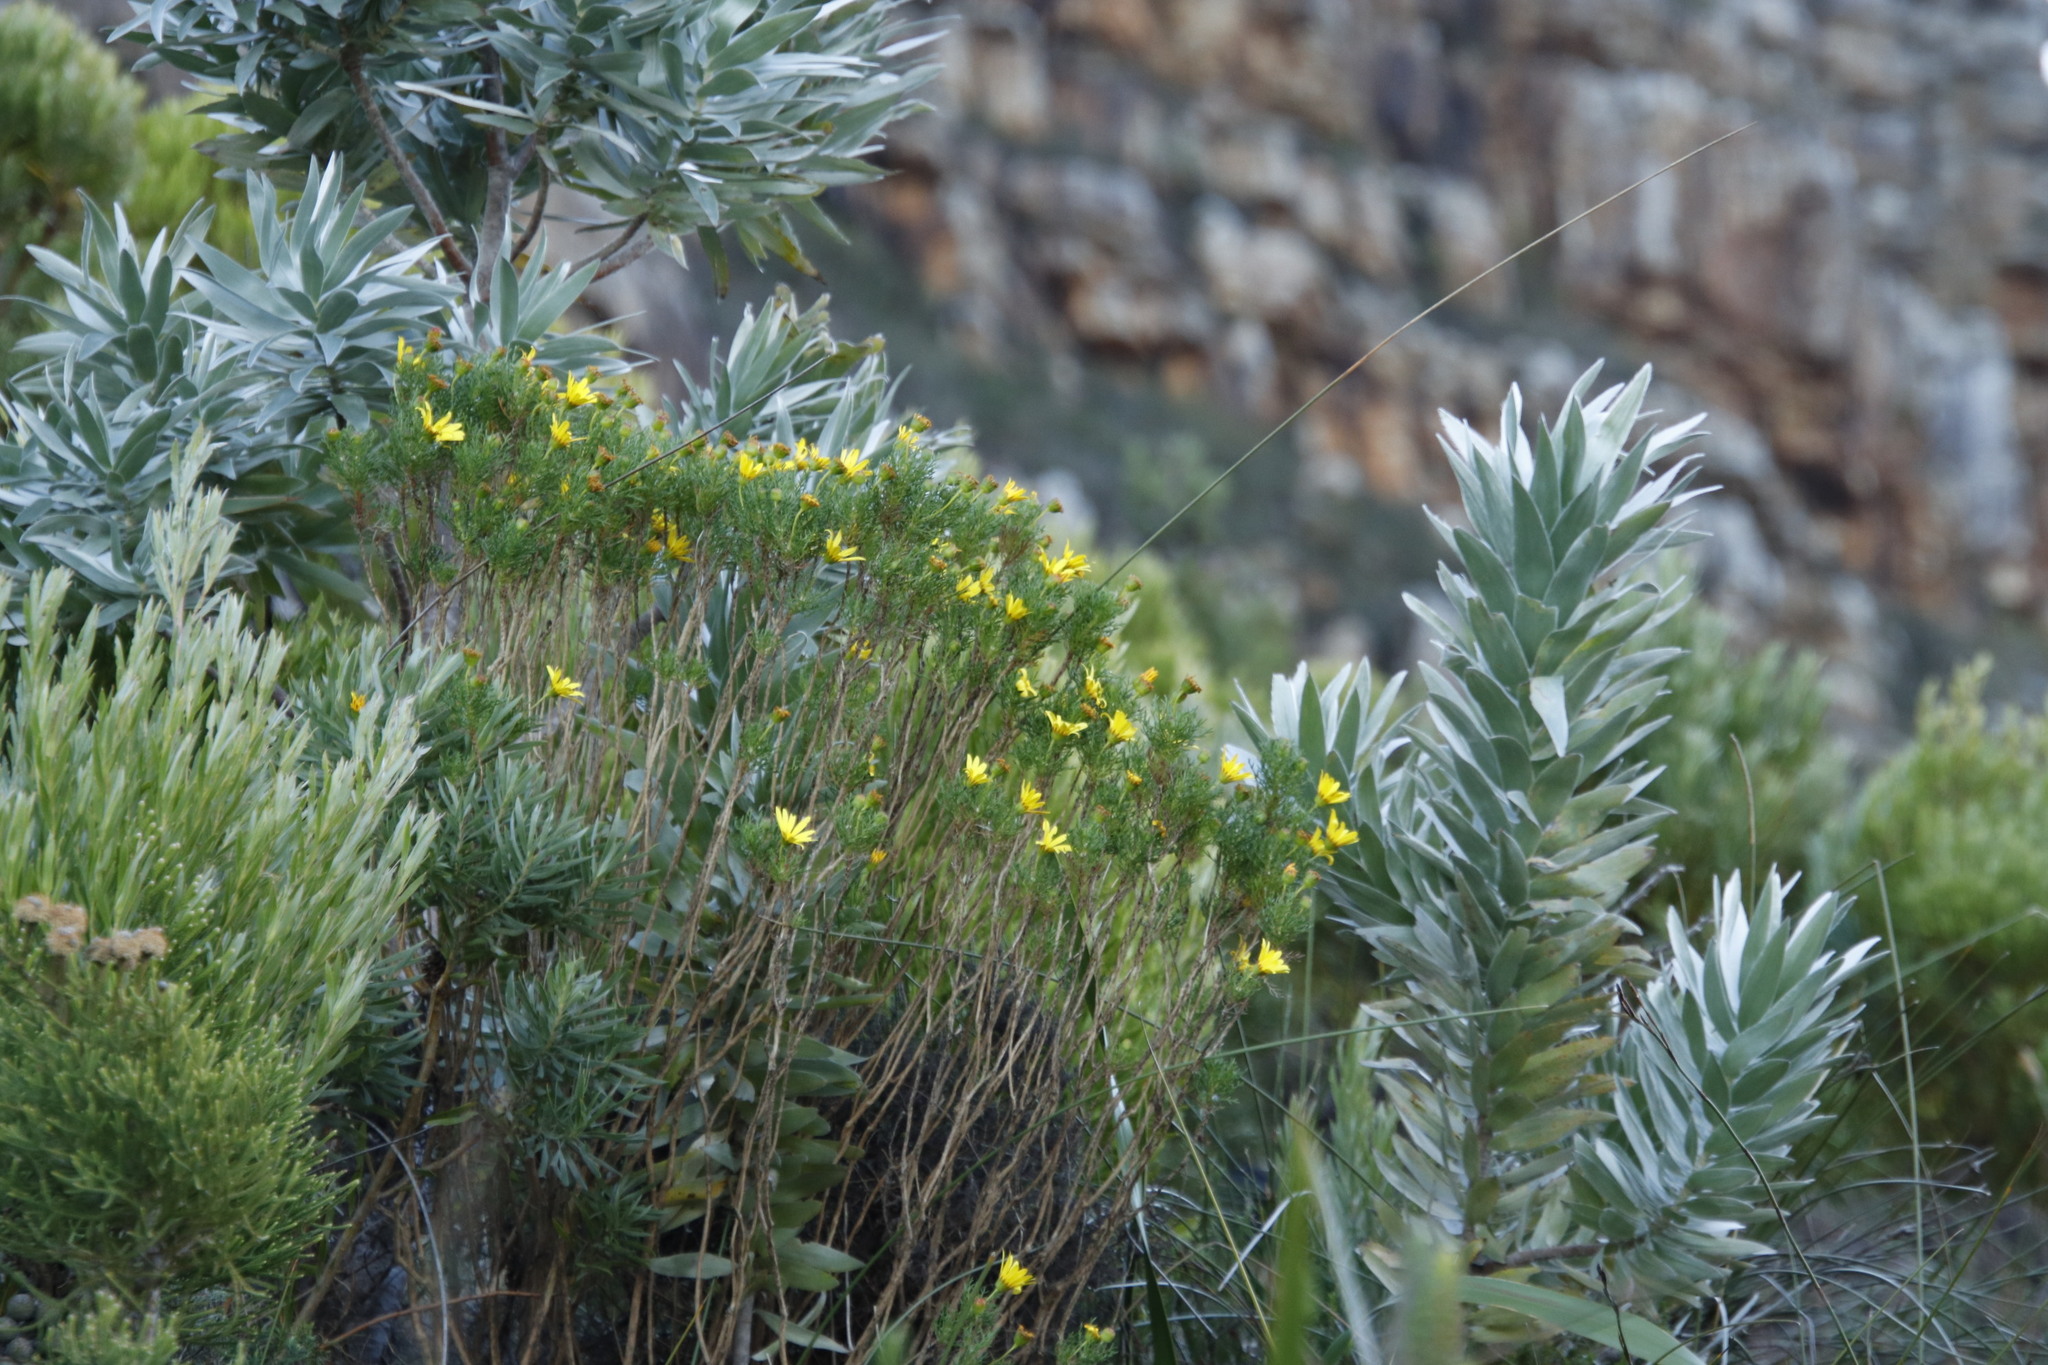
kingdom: Plantae
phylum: Tracheophyta
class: Magnoliopsida
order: Asterales
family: Asteraceae
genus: Euryops
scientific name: Euryops abrotanifolius
